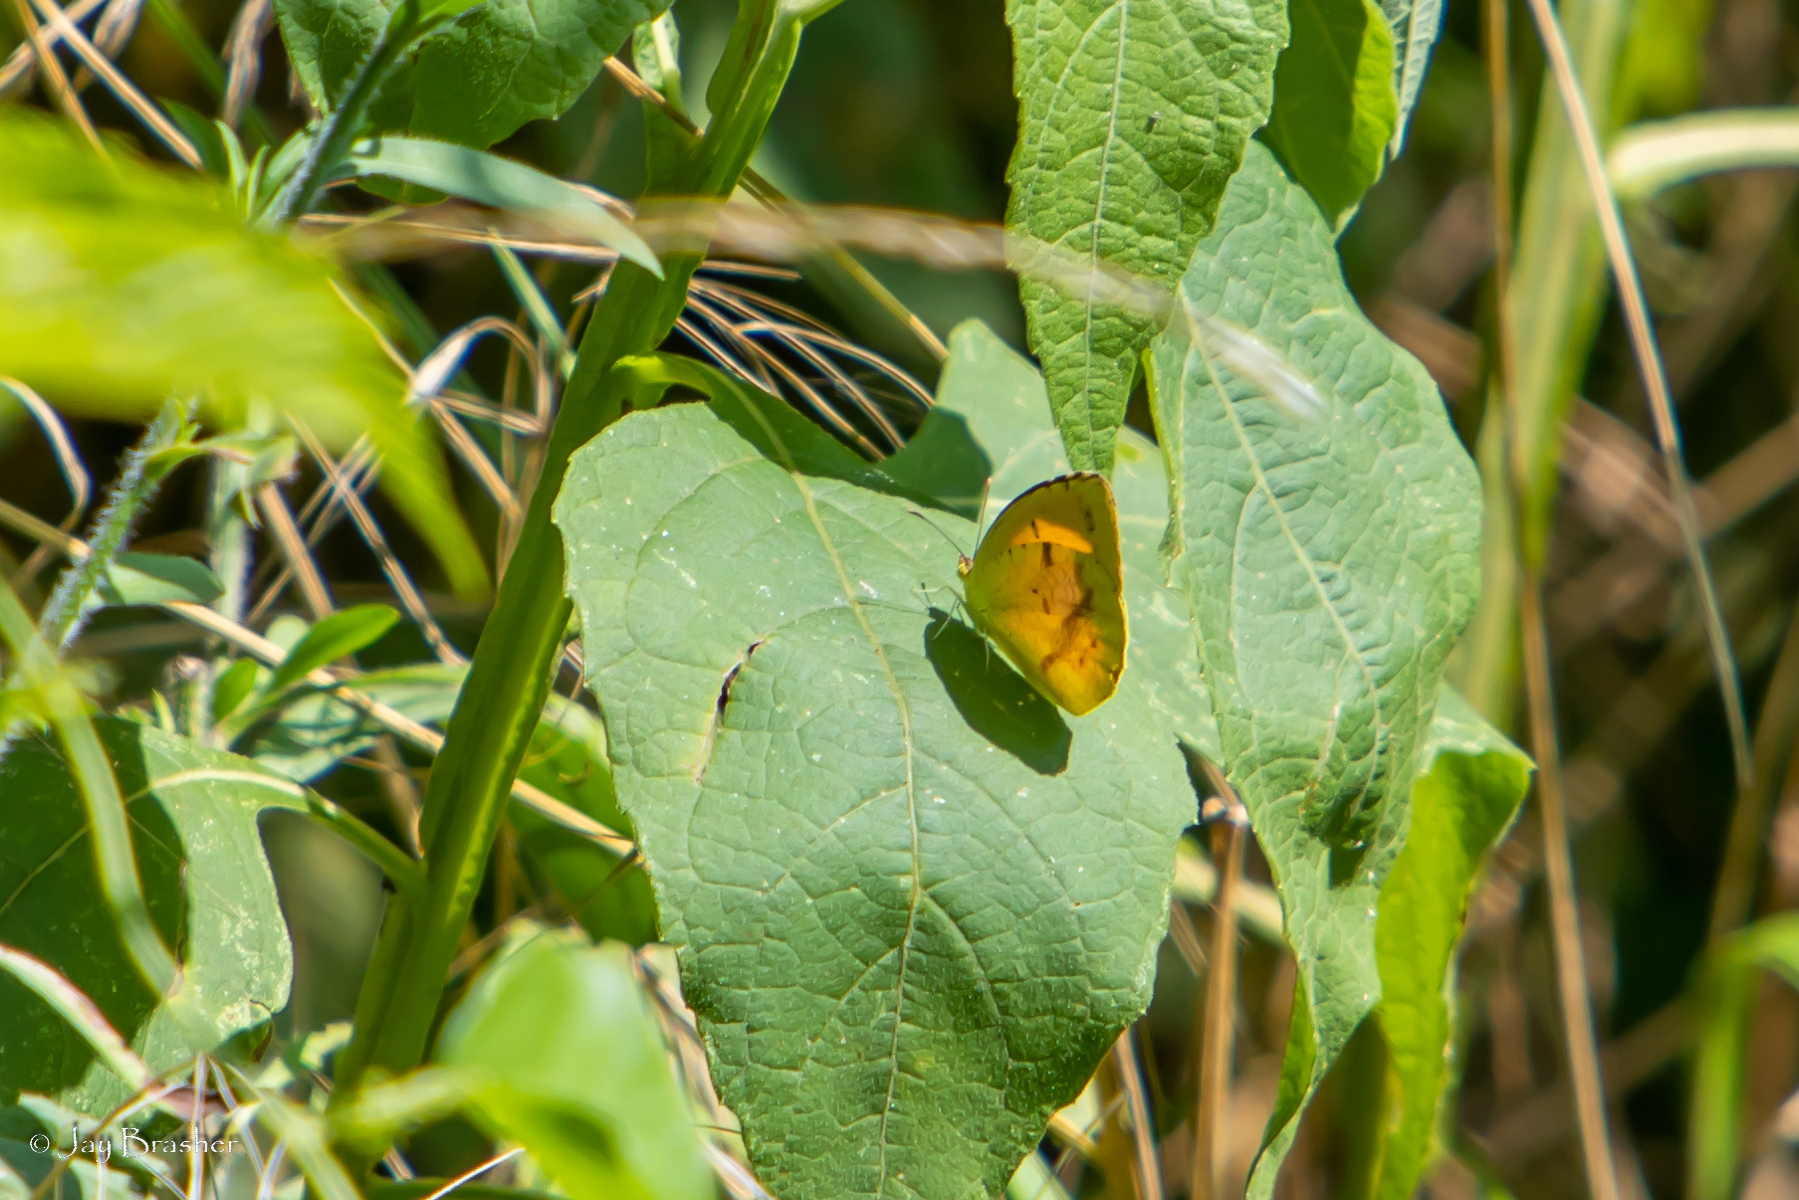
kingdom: Animalia
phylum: Arthropoda
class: Insecta
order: Lepidoptera
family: Pieridae
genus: Abaeis
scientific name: Abaeis nicippe
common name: Sleepy orange
